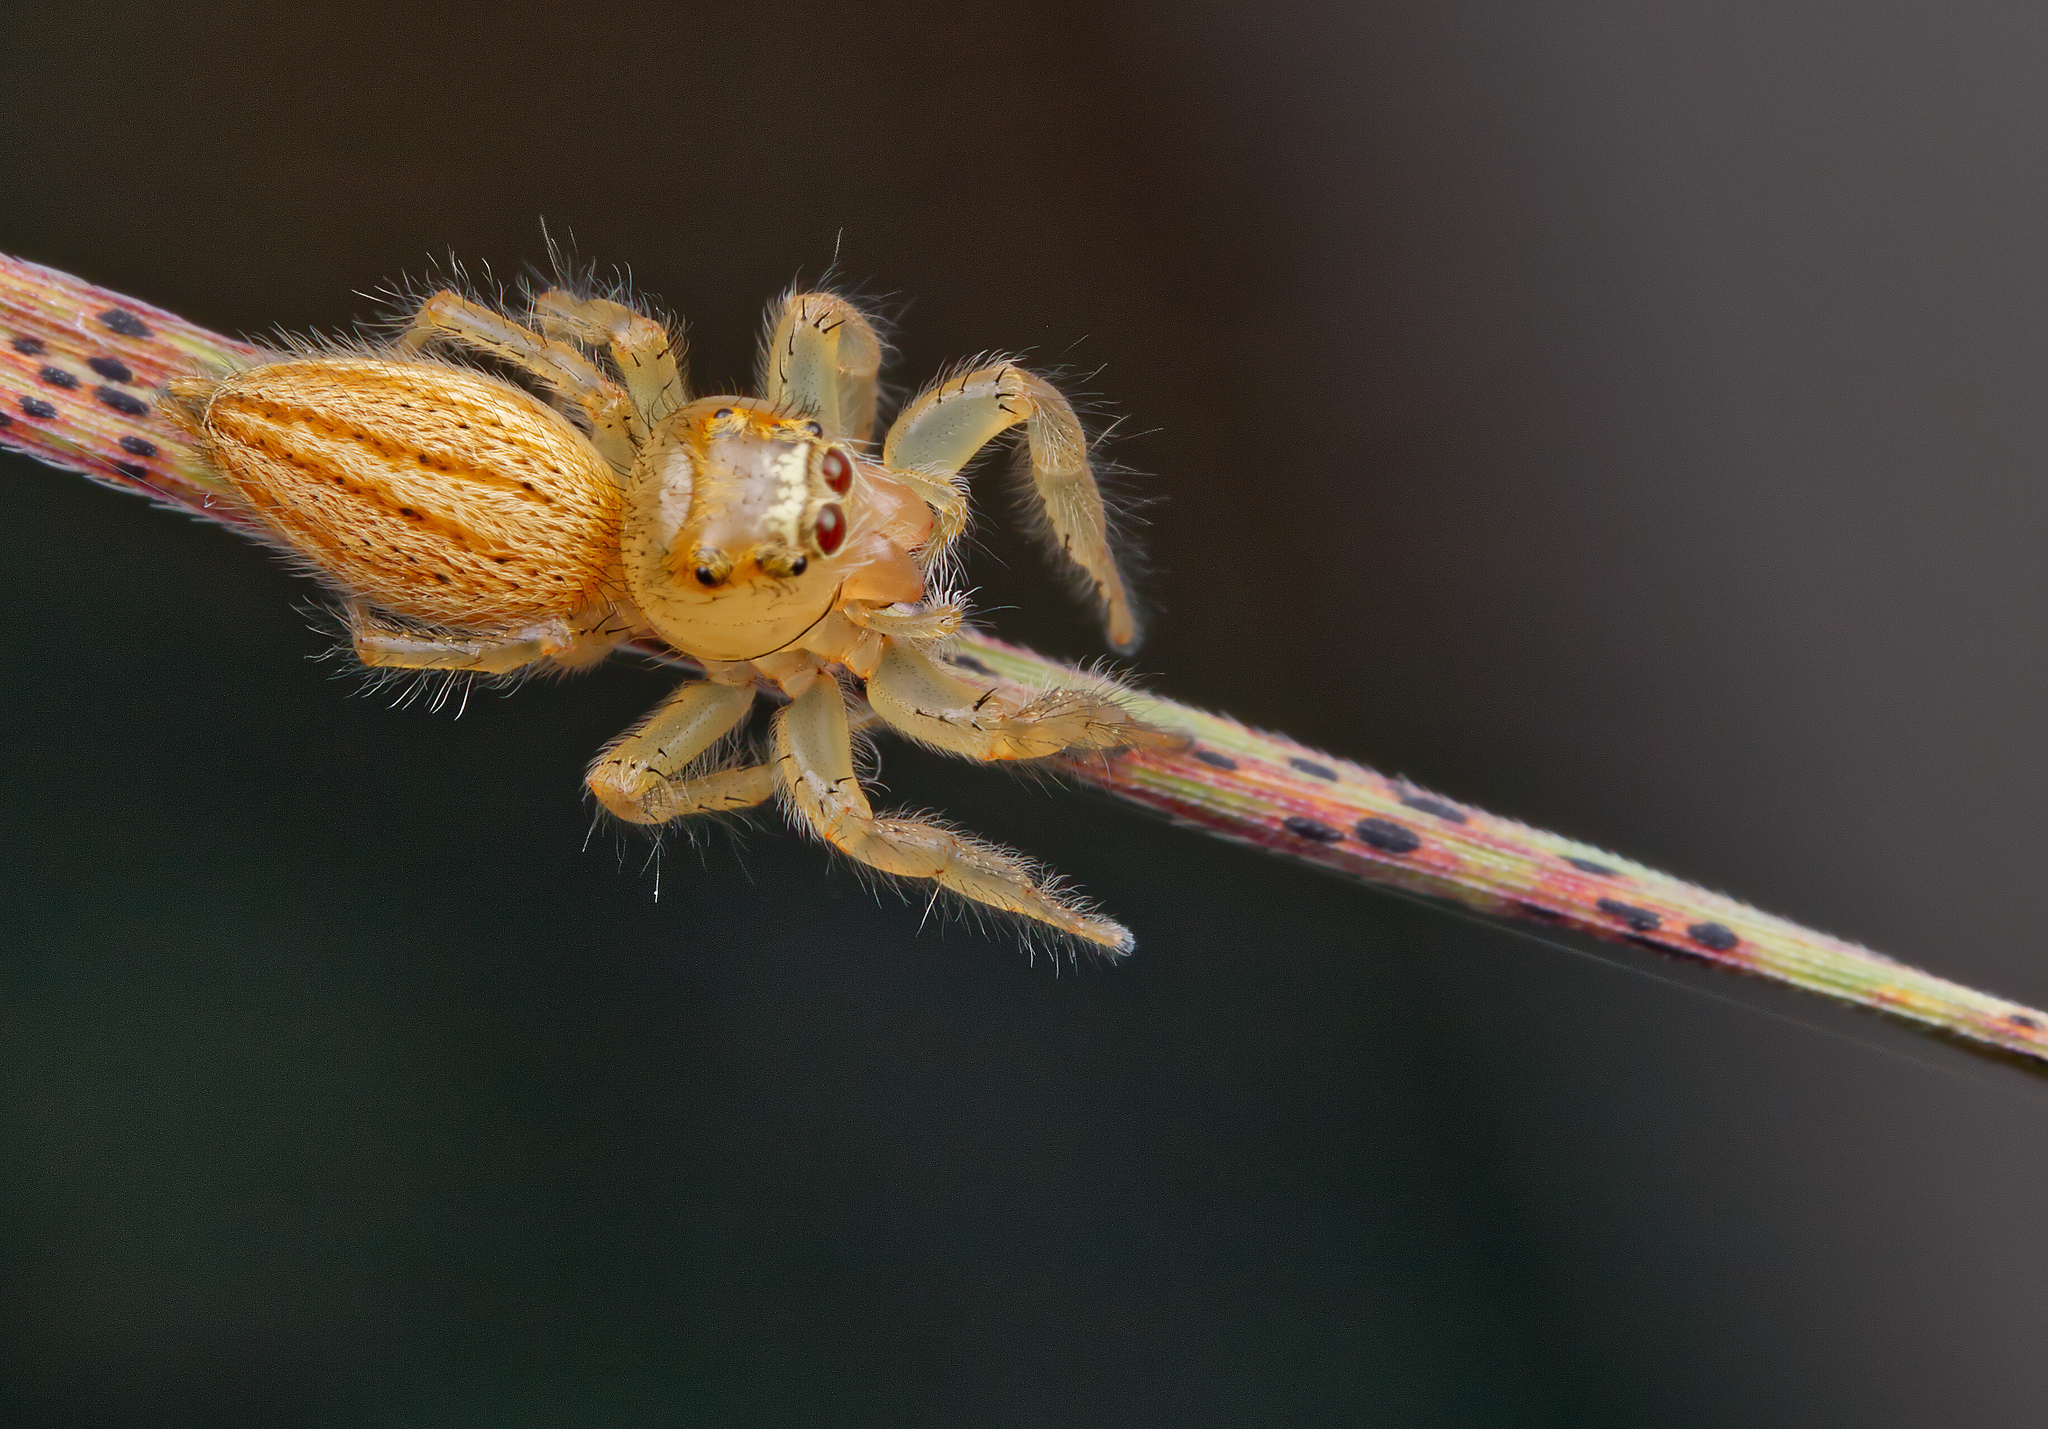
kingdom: Animalia
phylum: Arthropoda
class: Arachnida
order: Araneae
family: Salticidae
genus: Colonus
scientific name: Colonus puerperus
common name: Jumping spiders
